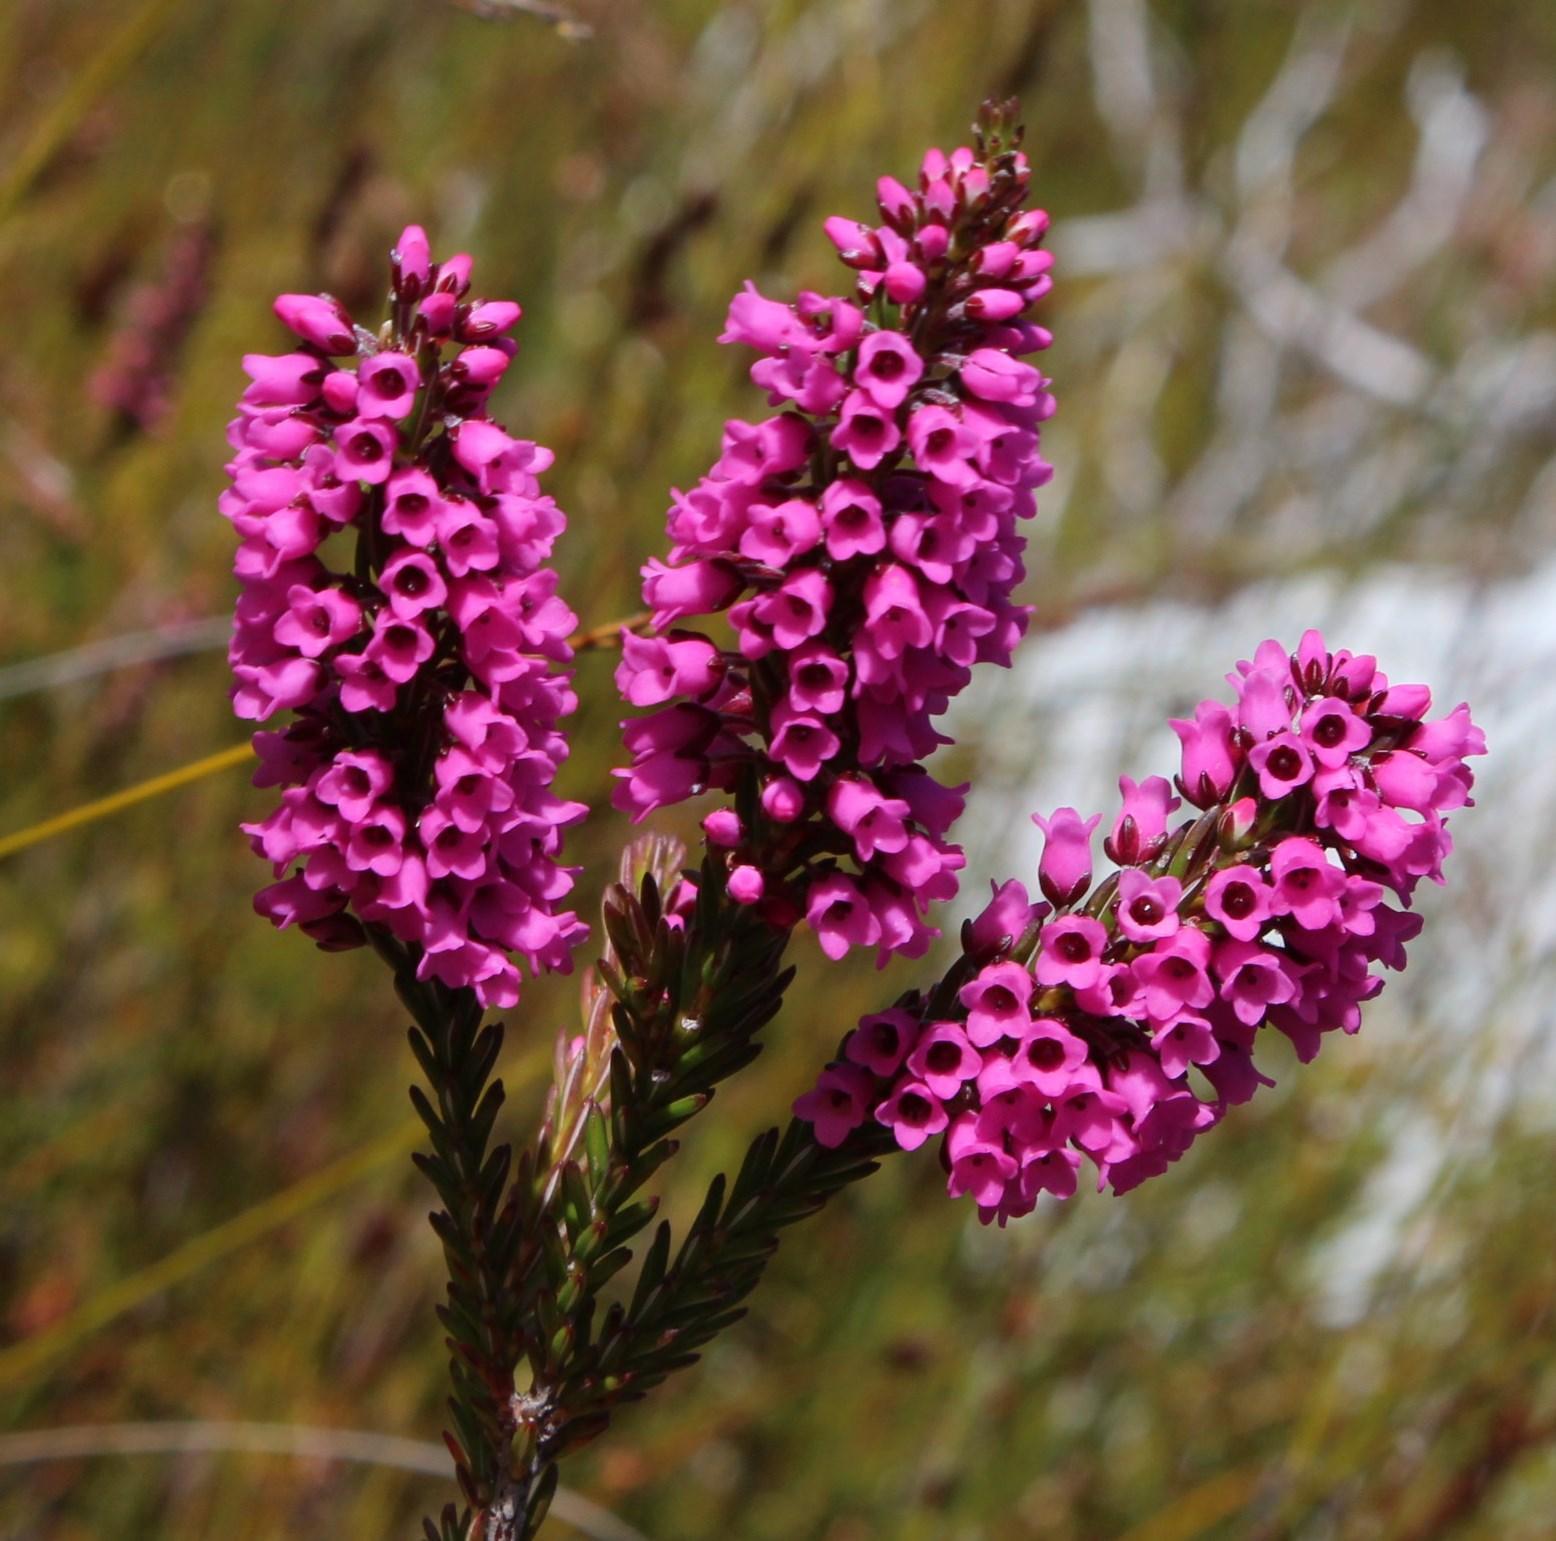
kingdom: Plantae
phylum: Tracheophyta
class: Magnoliopsida
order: Ericales
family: Ericaceae
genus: Erica
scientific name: Erica pulchella
